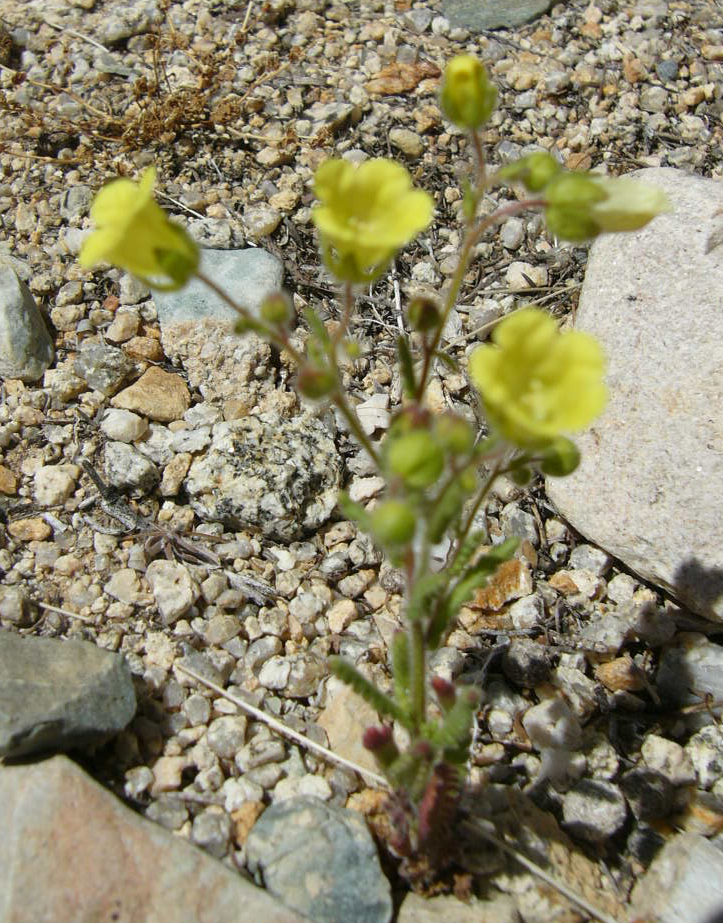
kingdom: Plantae
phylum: Tracheophyta
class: Magnoliopsida
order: Boraginales
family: Hydrophyllaceae
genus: Emmenanthe
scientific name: Emmenanthe penduliflora
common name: Whispering-bells
